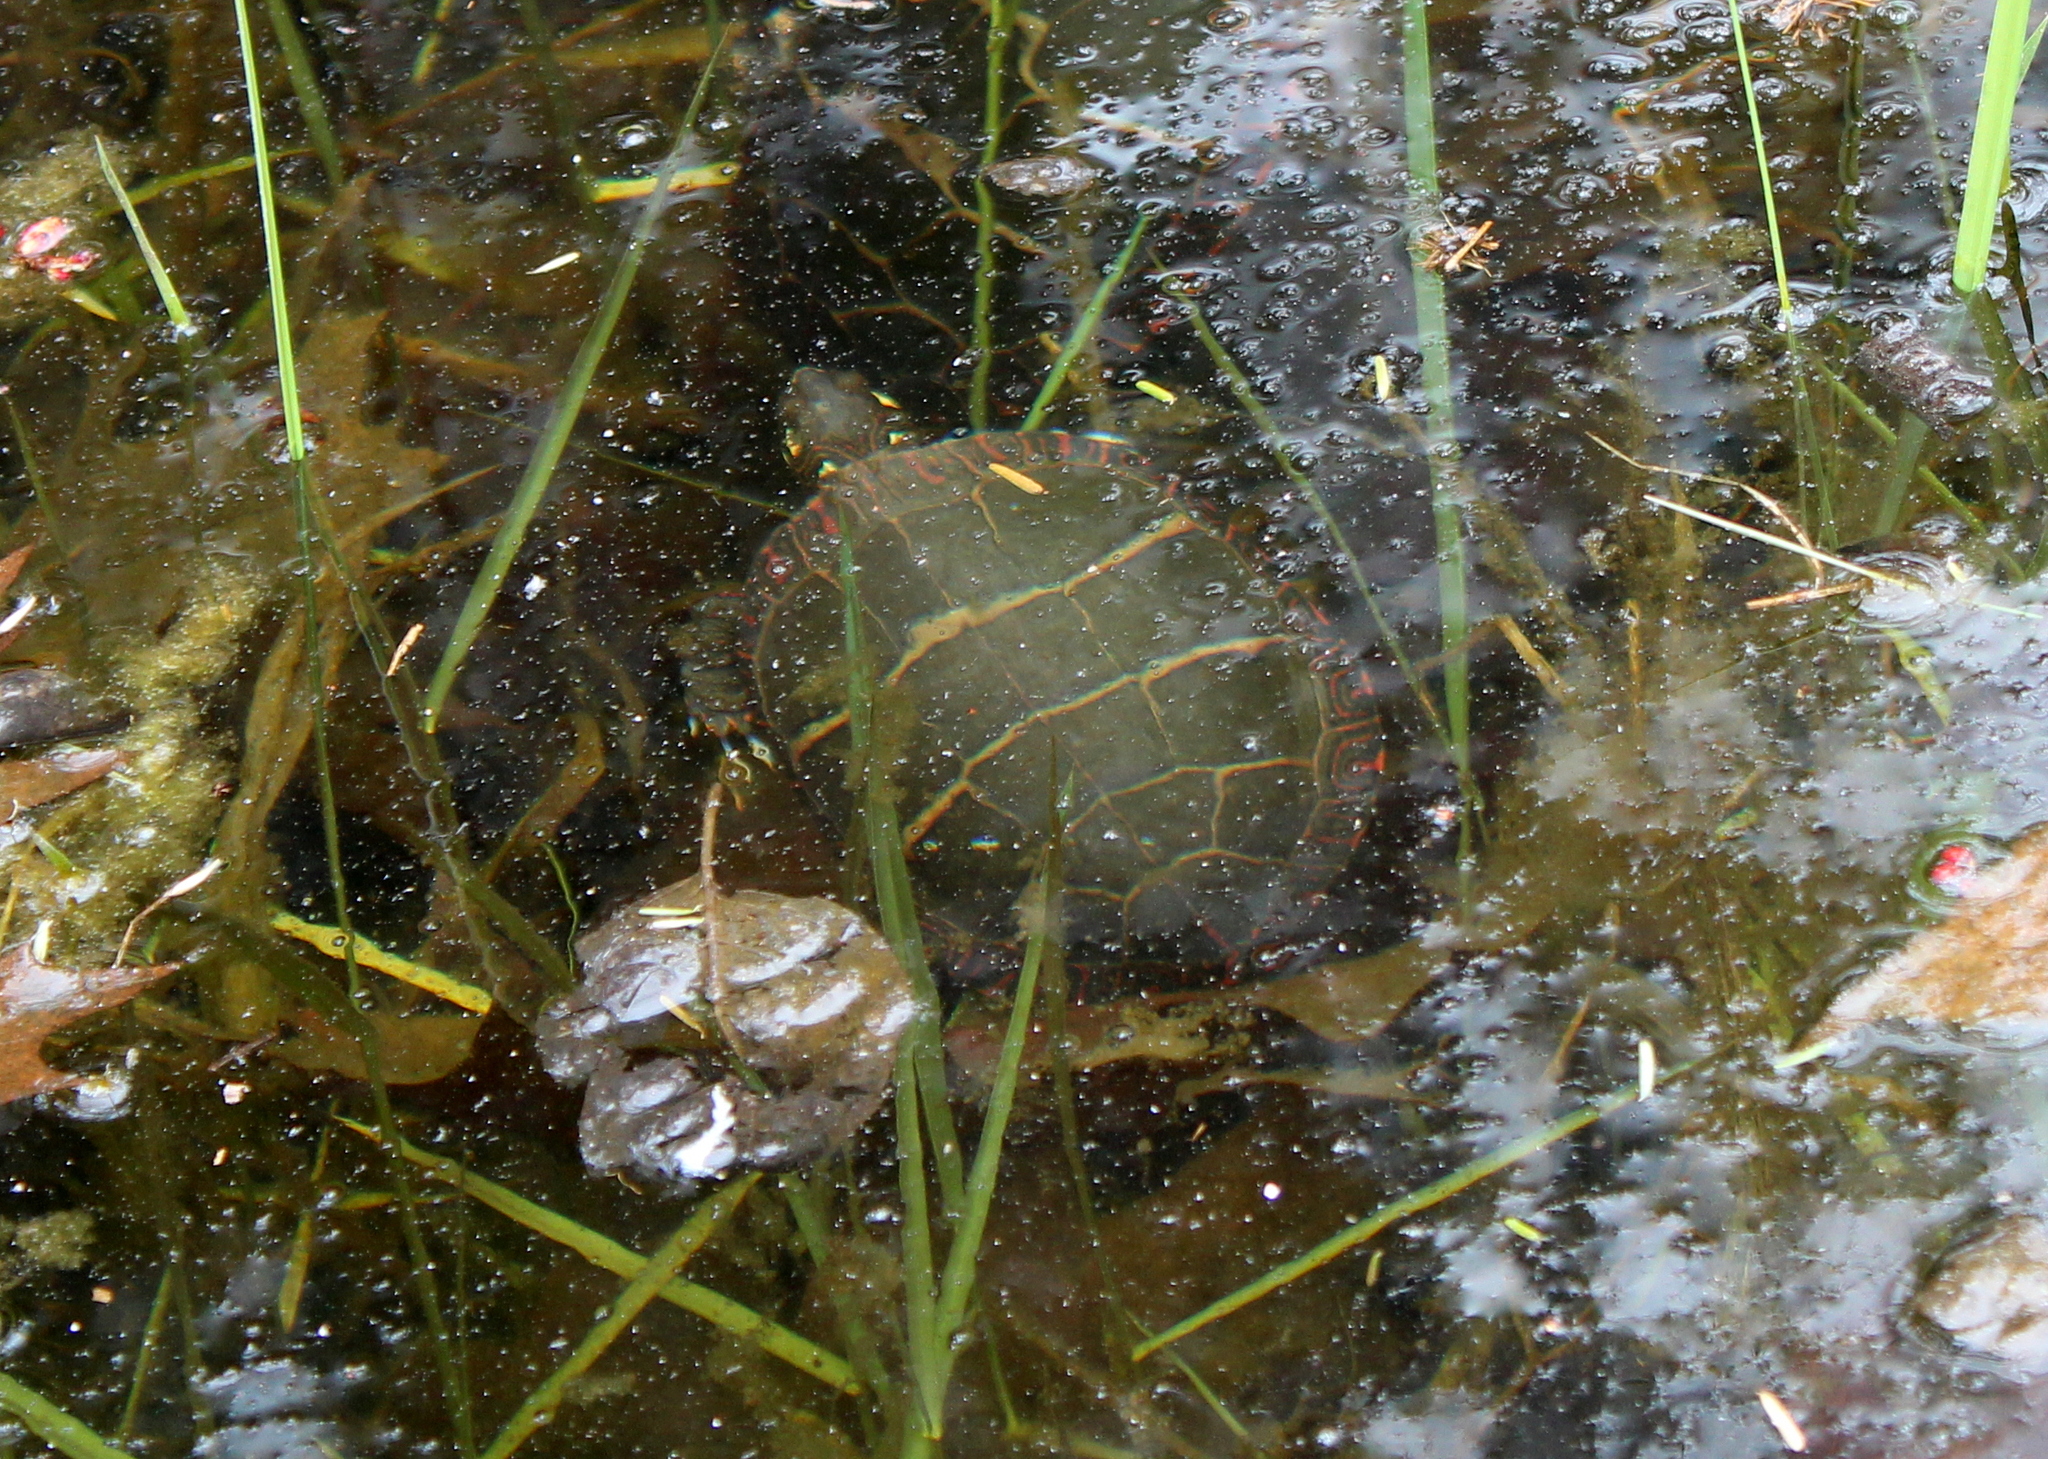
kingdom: Animalia
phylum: Chordata
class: Testudines
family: Emydidae
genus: Chrysemys
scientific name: Chrysemys picta
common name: Painted turtle
